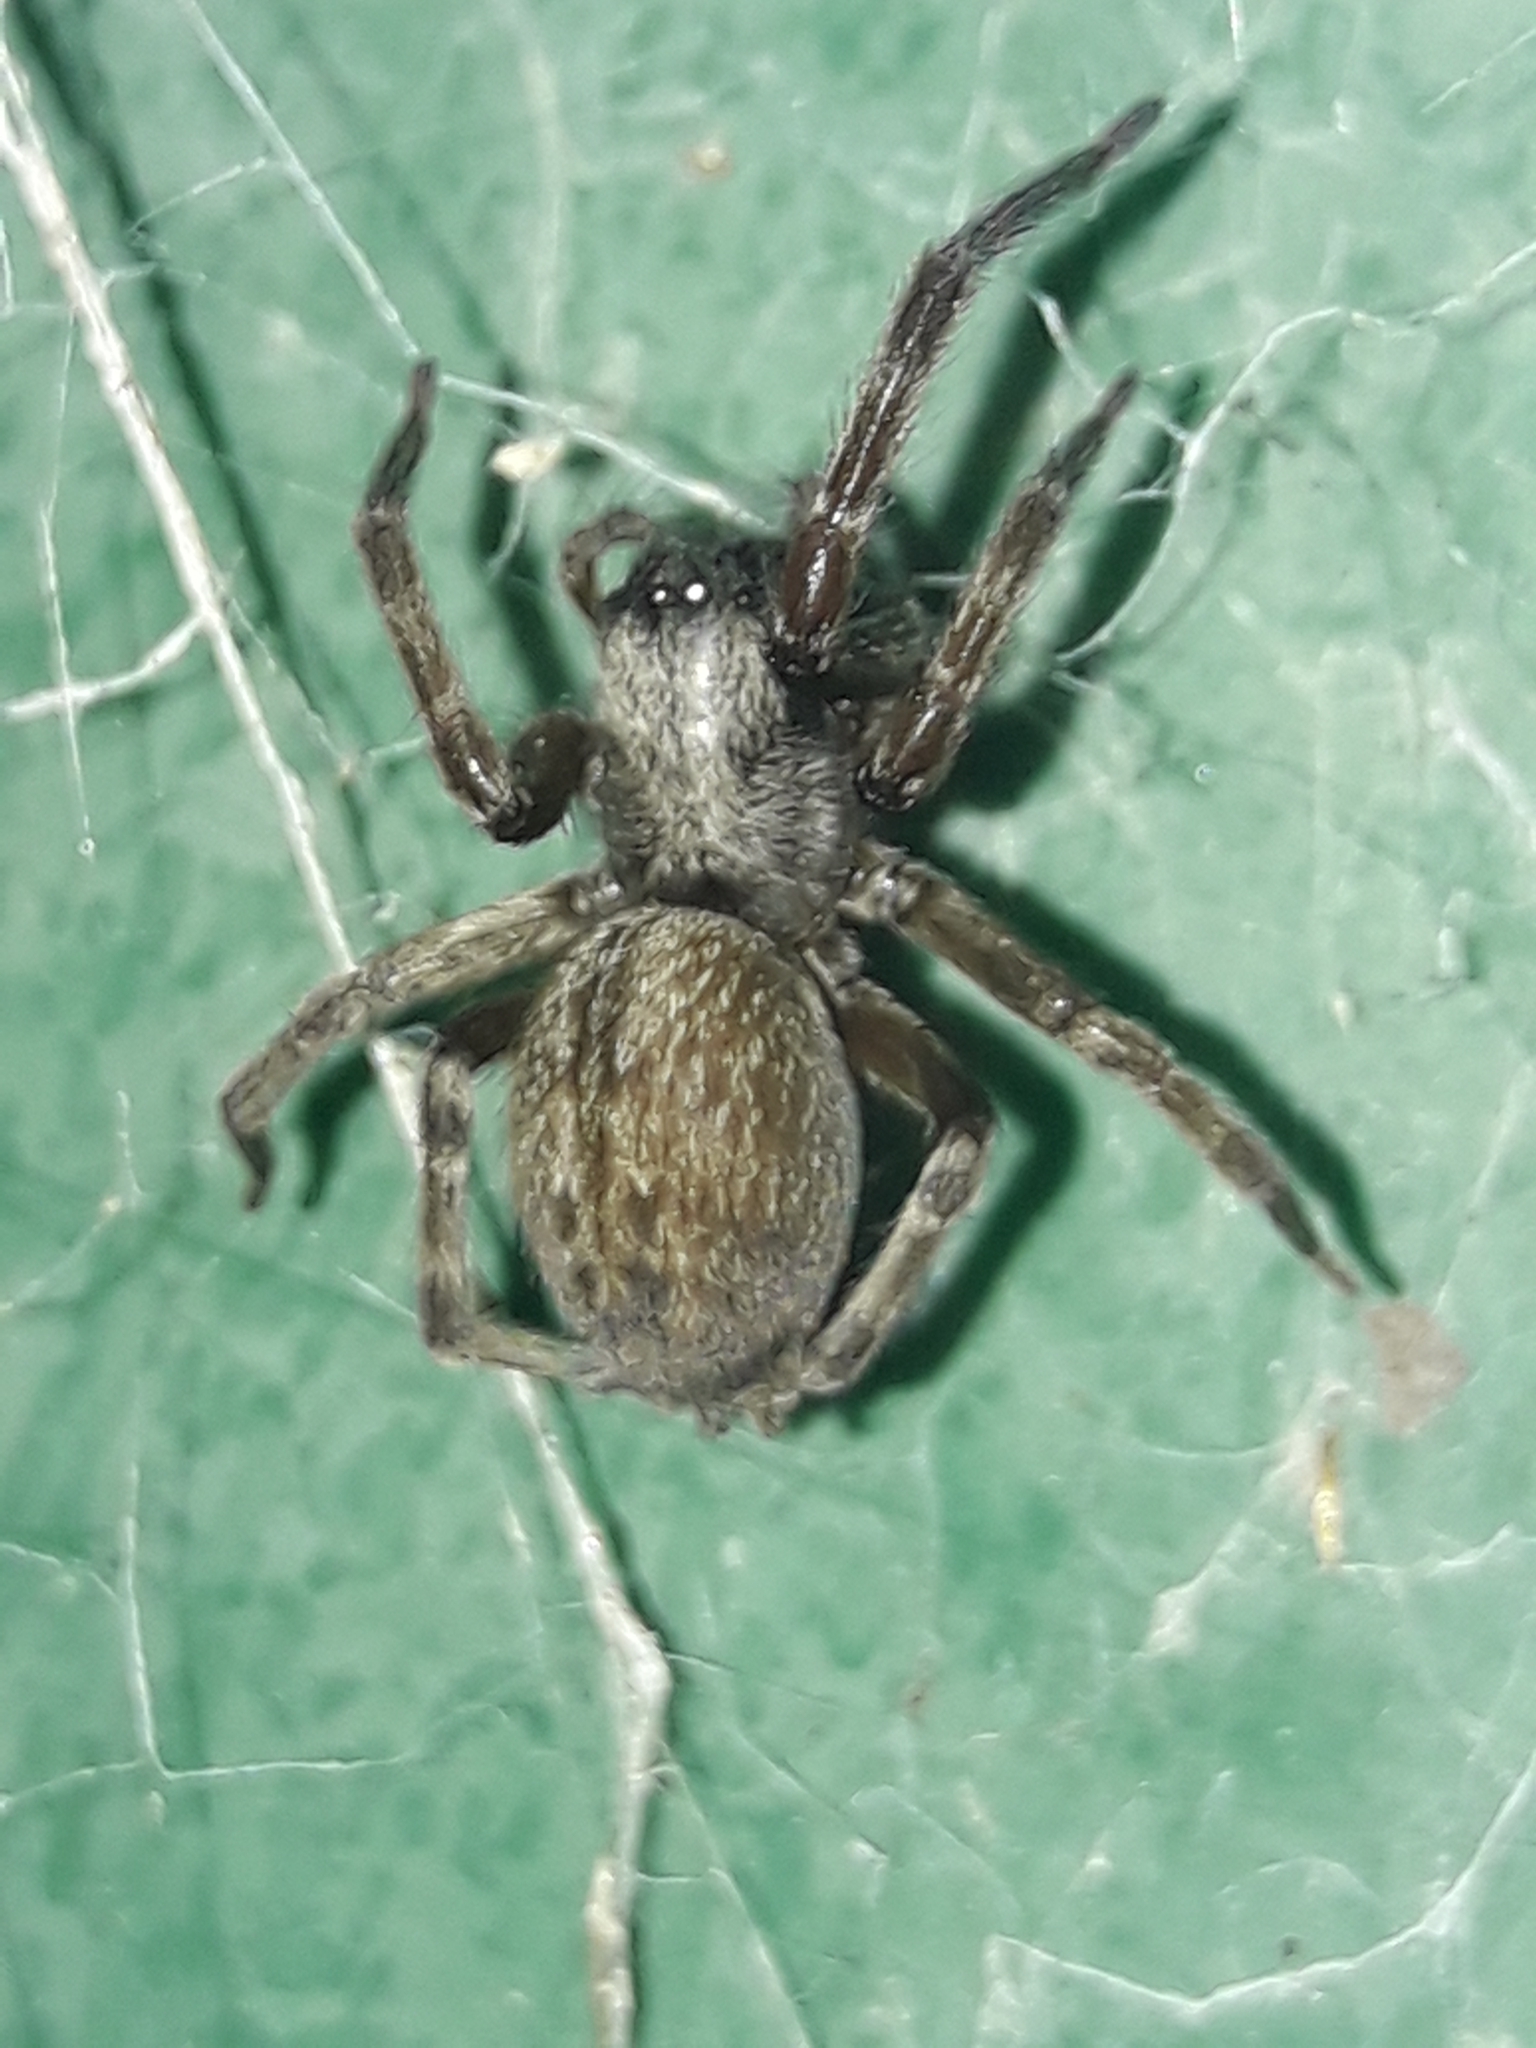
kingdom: Animalia
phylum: Arthropoda
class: Arachnida
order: Araneae
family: Desidae
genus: Badumna
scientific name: Badumna longinqua
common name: Gray house spider
